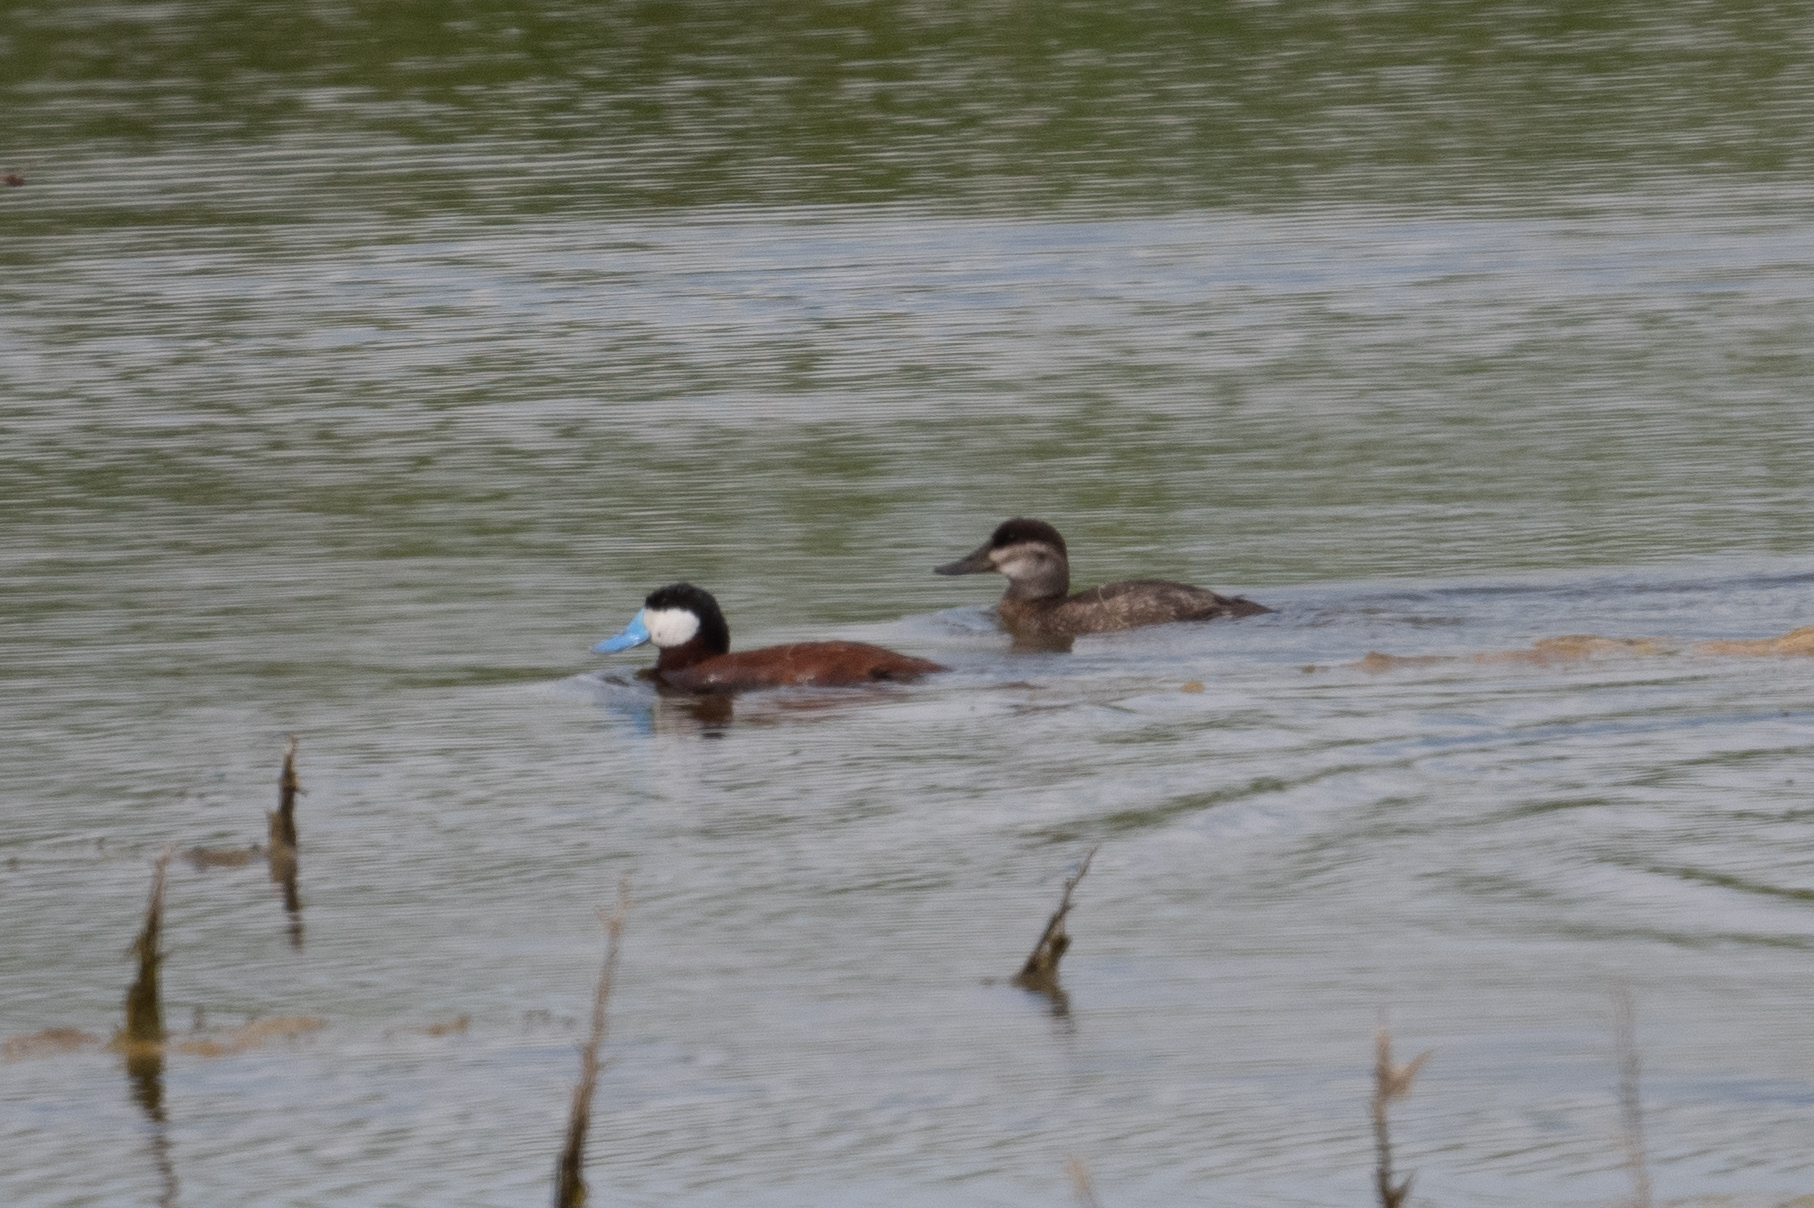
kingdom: Animalia
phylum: Chordata
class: Aves
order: Anseriformes
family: Anatidae
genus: Oxyura
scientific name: Oxyura jamaicensis
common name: Ruddy duck
